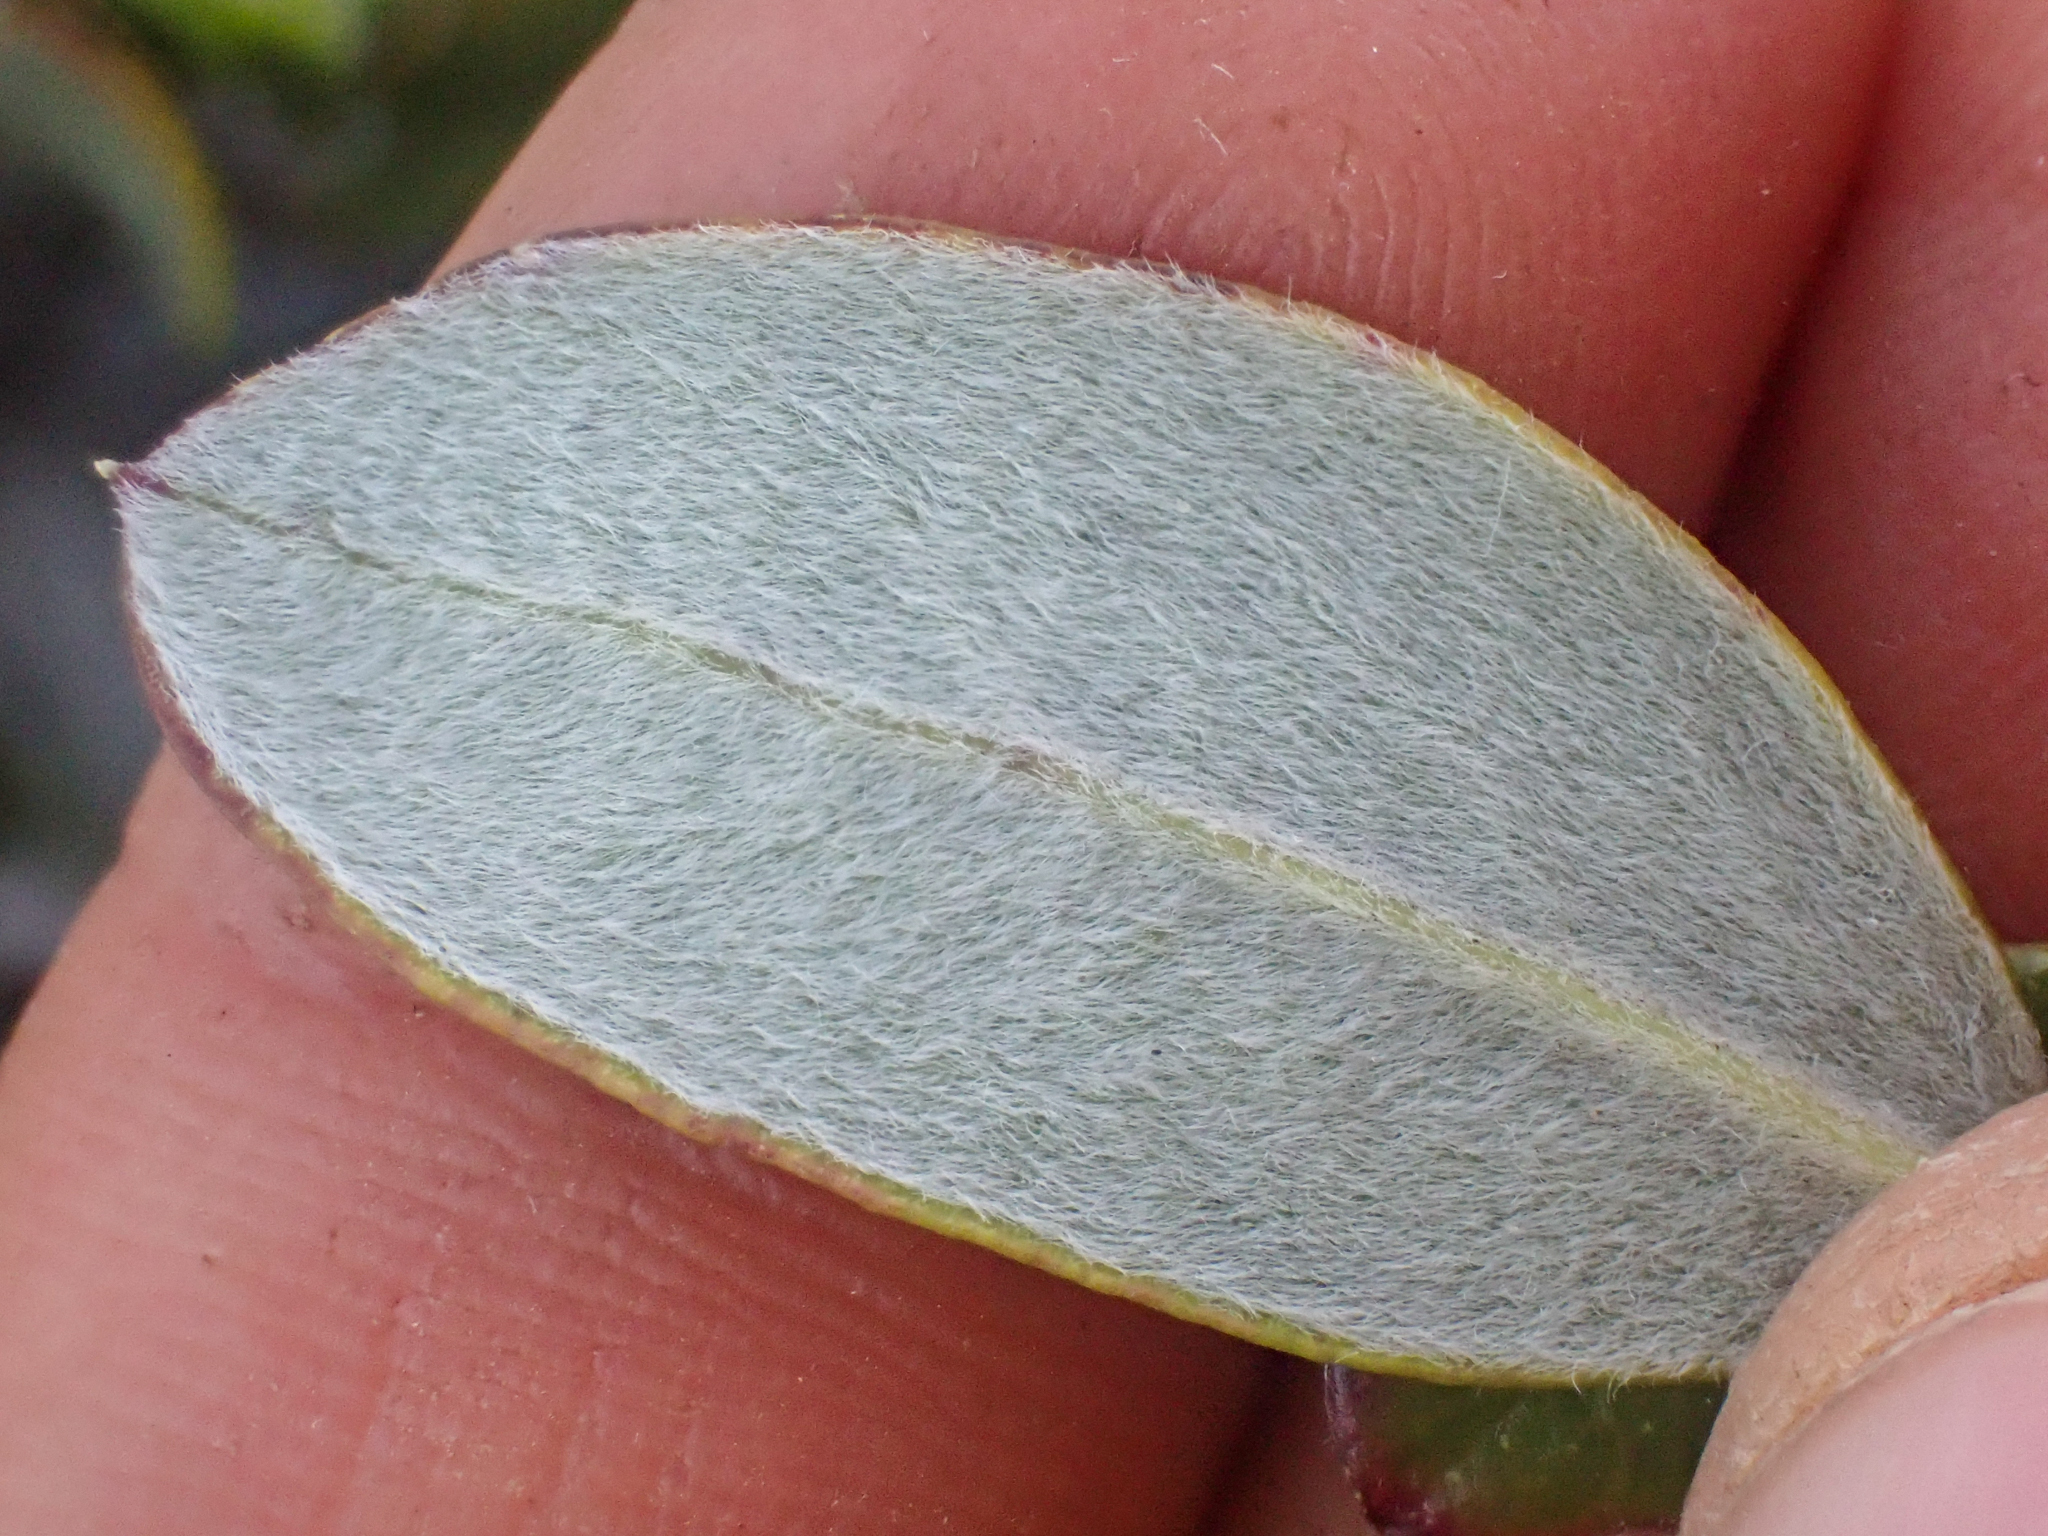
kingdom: Plantae
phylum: Tracheophyta
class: Magnoliopsida
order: Garryales
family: Garryaceae
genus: Garrya
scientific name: Garrya buxifolia
